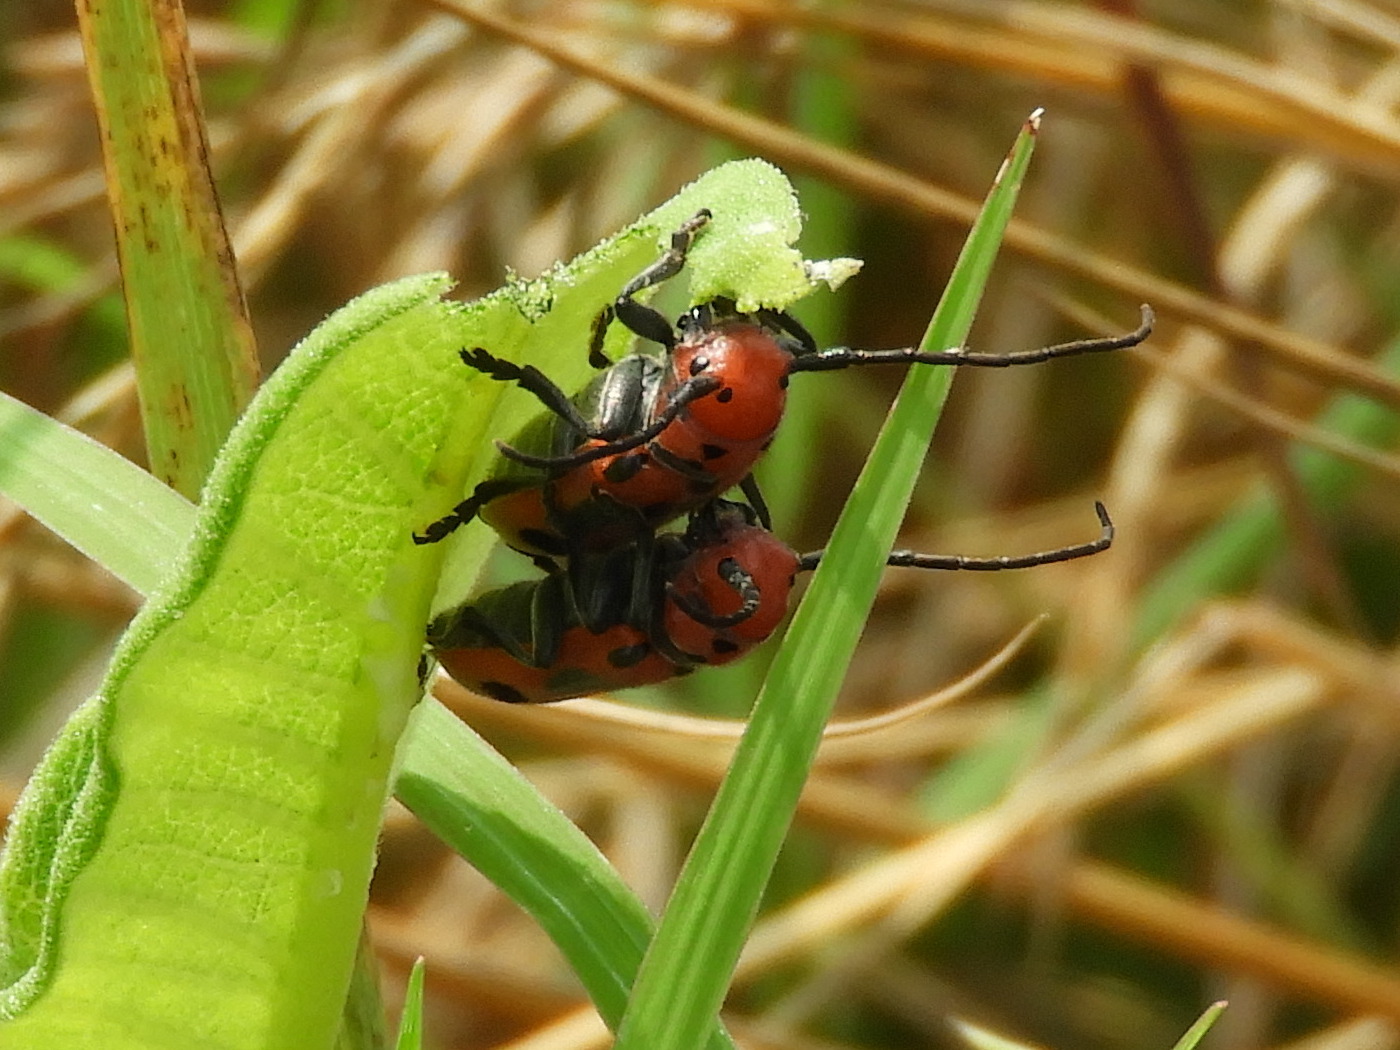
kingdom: Animalia
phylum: Arthropoda
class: Insecta
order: Coleoptera
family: Cerambycidae
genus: Tetraopes
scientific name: Tetraopes tetrophthalmus
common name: Red milkweed beetle
